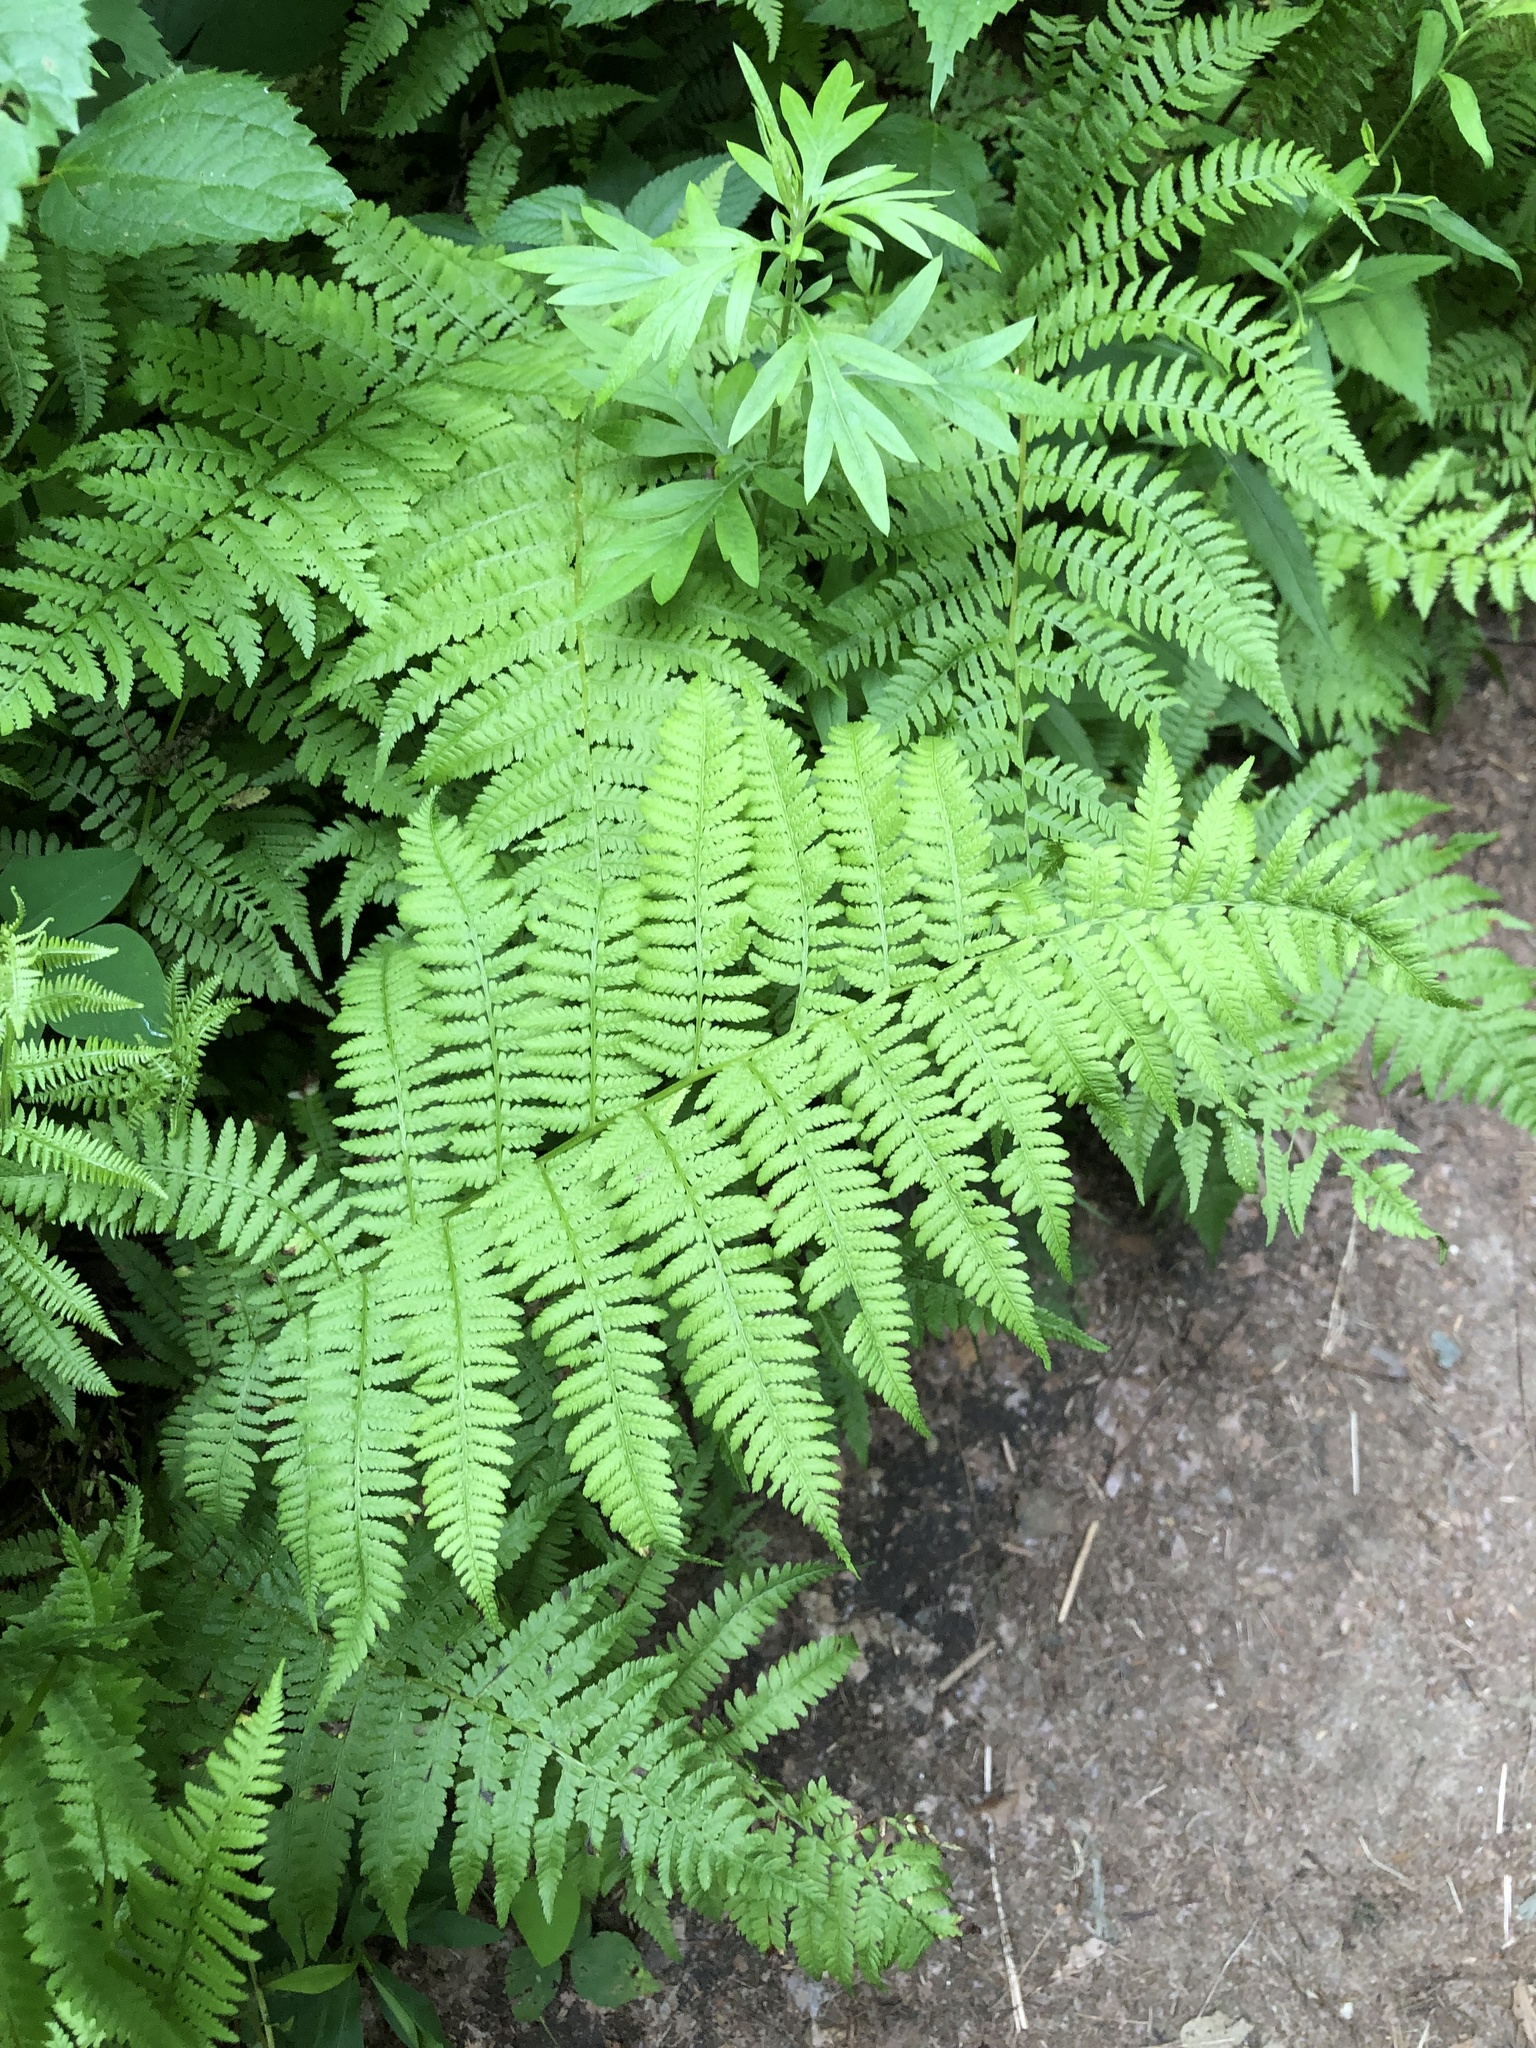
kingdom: Plantae
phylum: Tracheophyta
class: Polypodiopsida
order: Polypodiales
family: Athyriaceae
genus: Athyrium
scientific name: Athyrium angustum
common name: Northern lady fern
